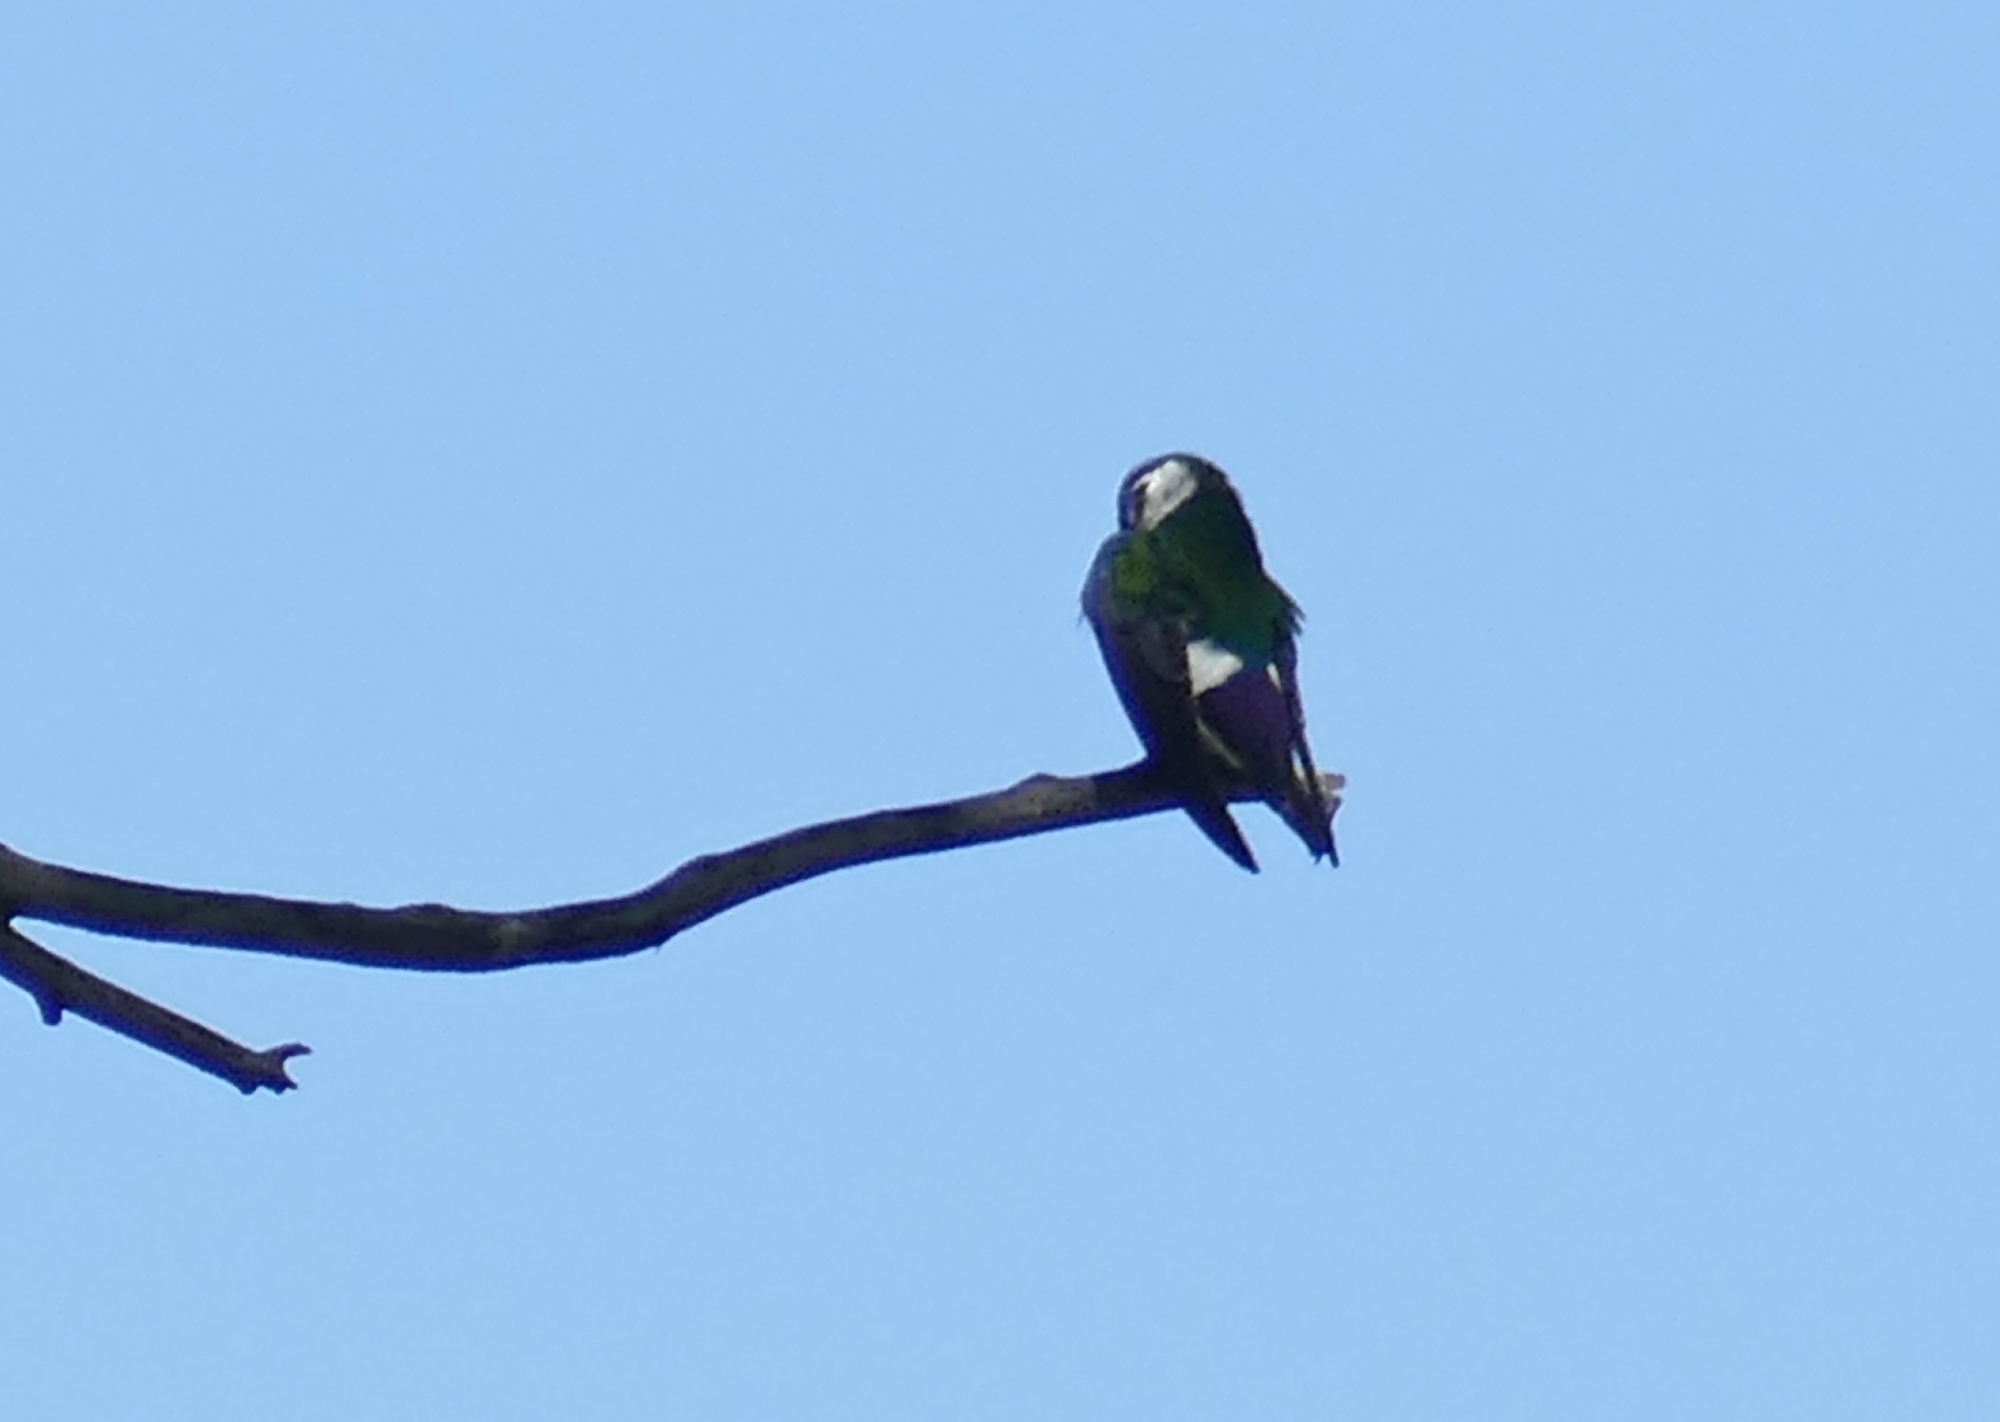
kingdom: Animalia
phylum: Chordata
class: Aves
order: Passeriformes
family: Hirundinidae
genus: Tachycineta
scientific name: Tachycineta thalassina
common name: Violet-green swallow
